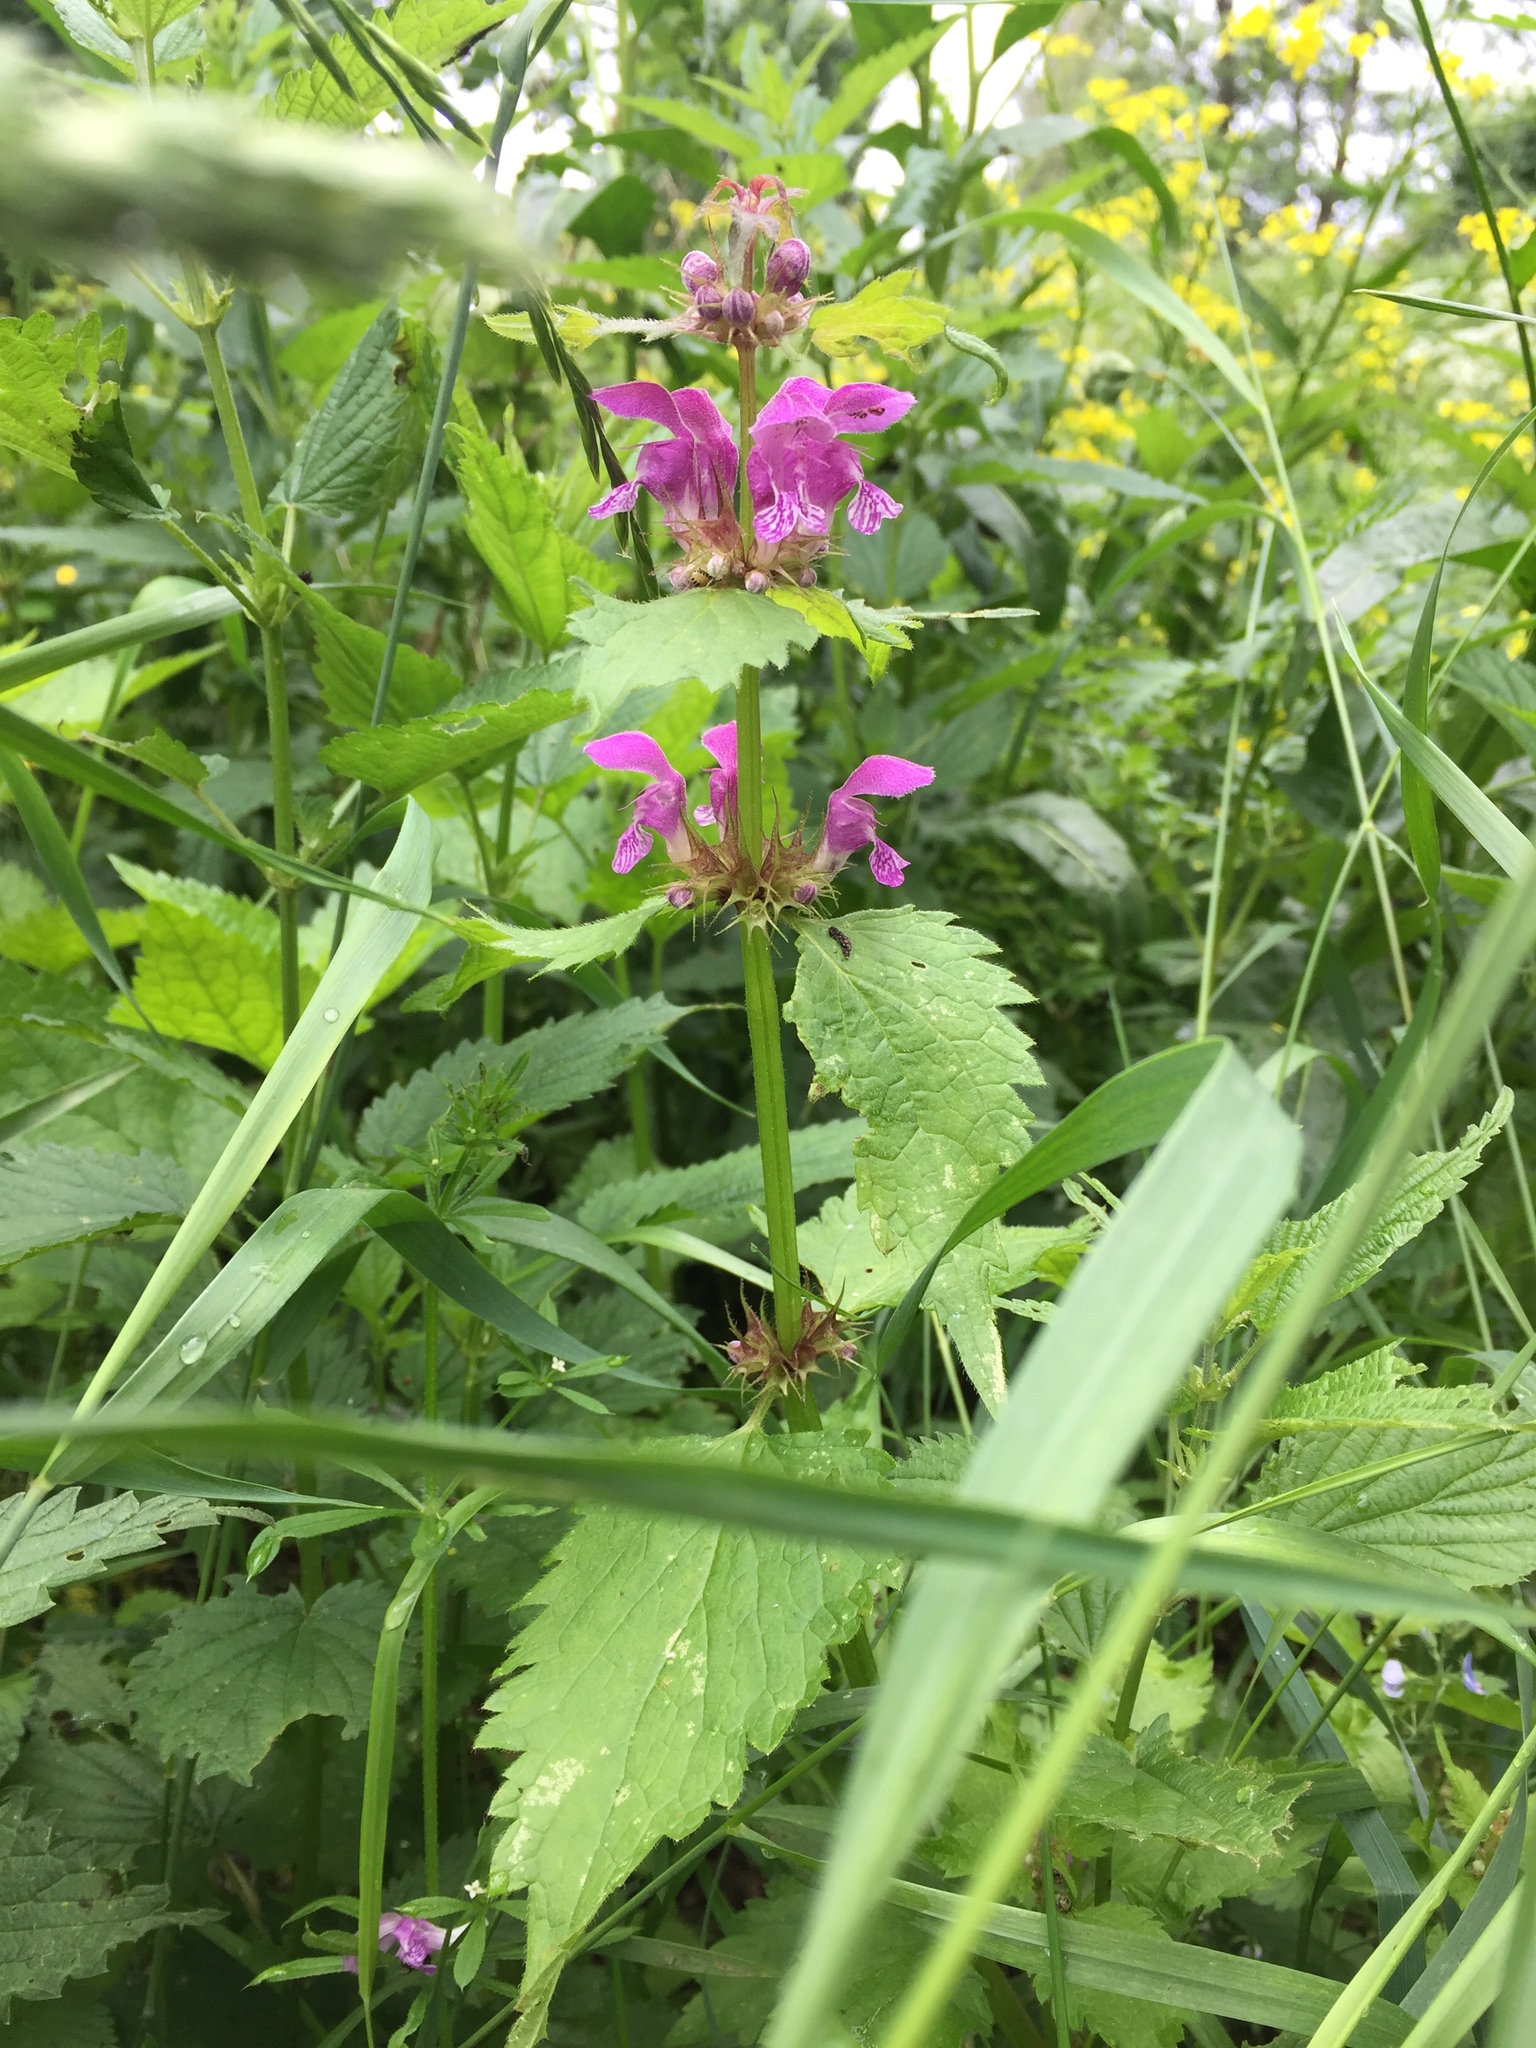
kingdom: Plantae
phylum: Tracheophyta
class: Magnoliopsida
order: Lamiales
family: Lamiaceae
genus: Lamium
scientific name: Lamium maculatum
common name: Spotted dead-nettle
